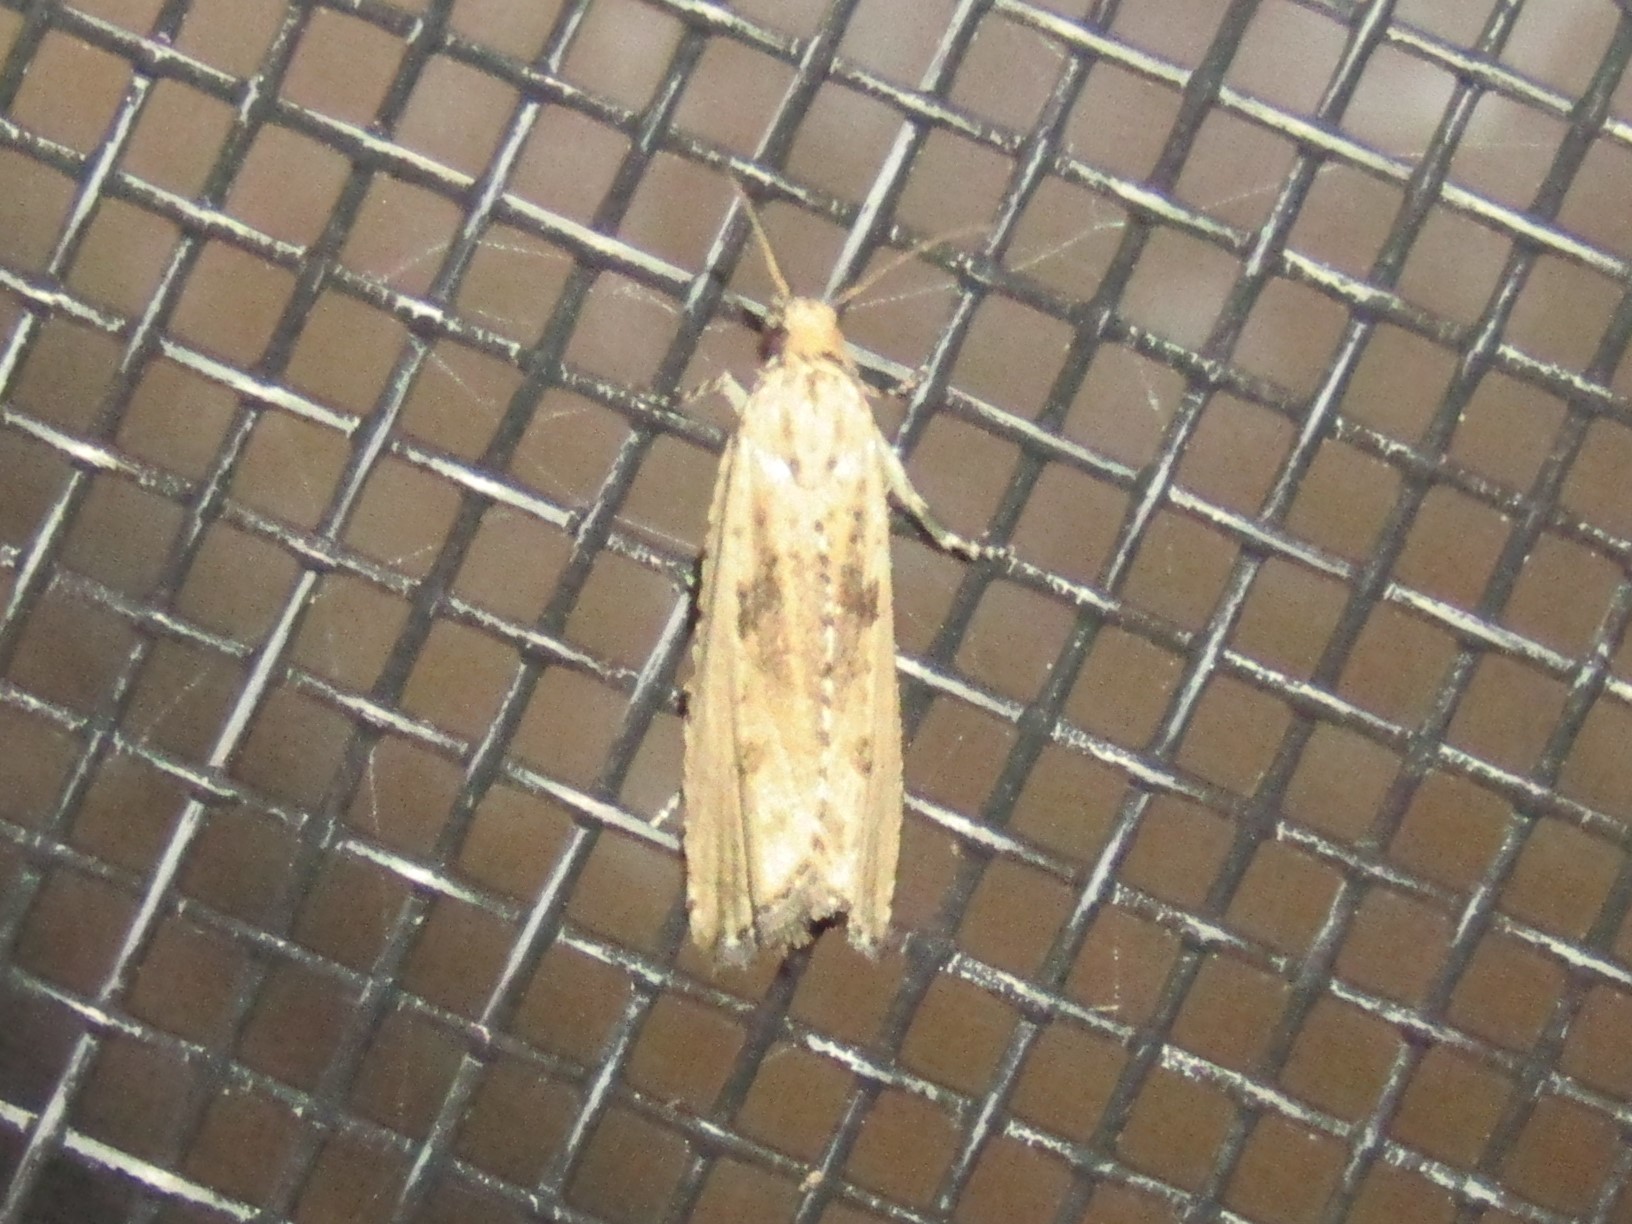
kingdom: Animalia
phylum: Arthropoda
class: Insecta
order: Lepidoptera
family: Tortricidae
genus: Bactra
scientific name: Bactra verutana
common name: Javelin moth
